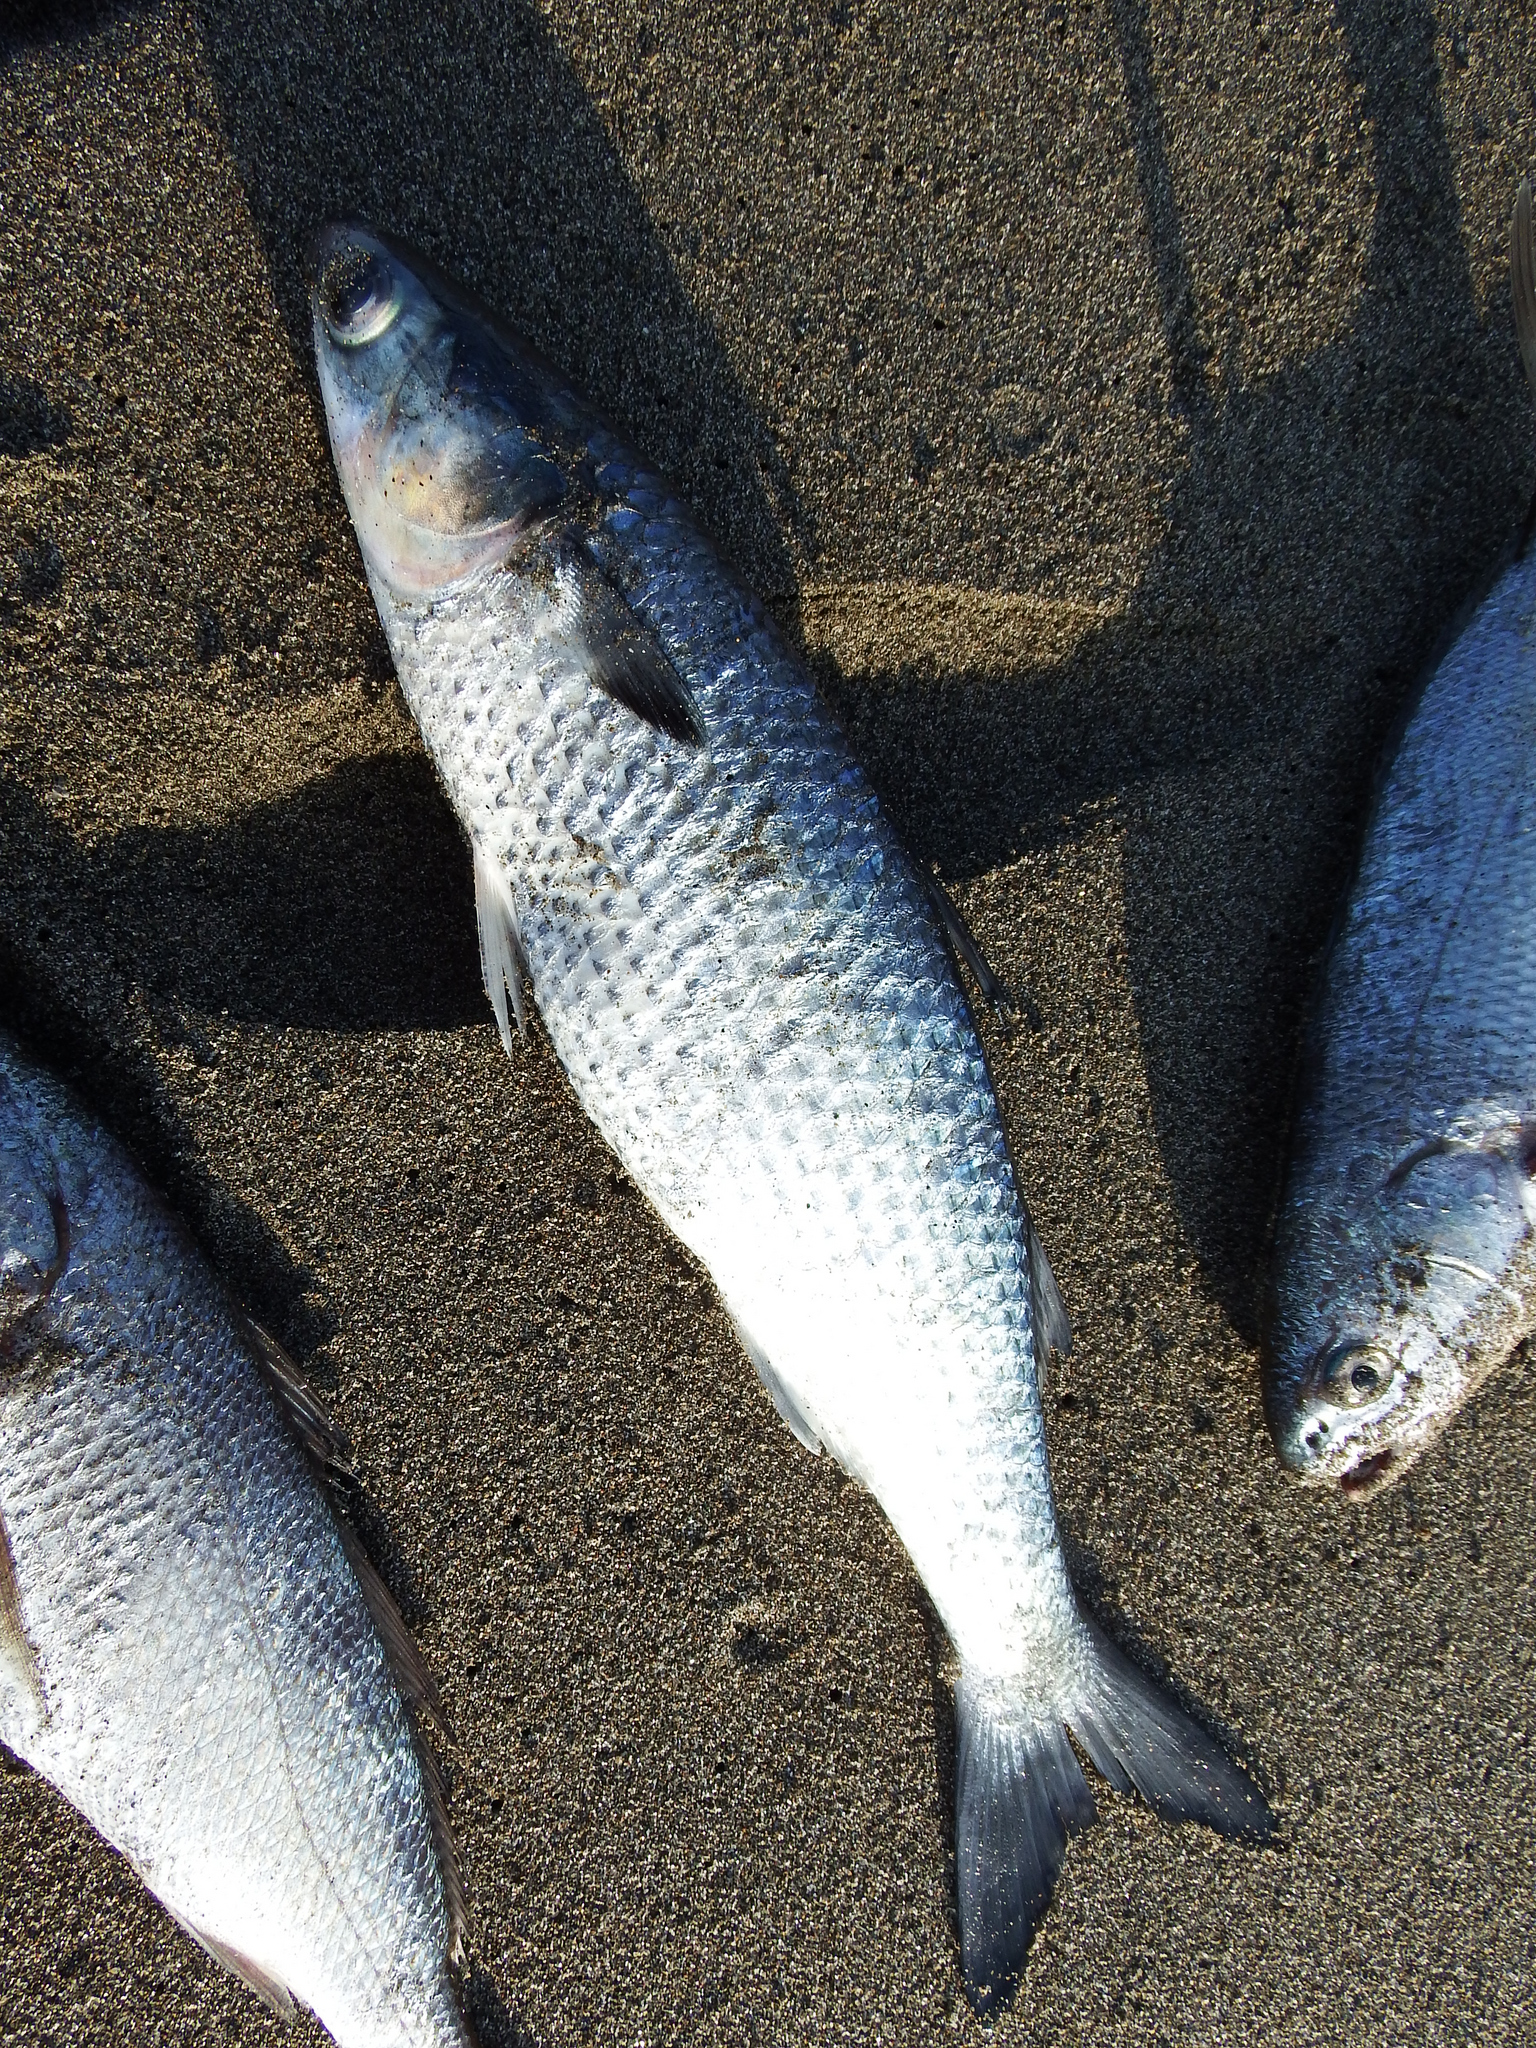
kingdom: Animalia
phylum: Chordata
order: Mugiliformes
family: Mugilidae
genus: Mugil
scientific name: Mugil cephalus
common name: Grey mullet
